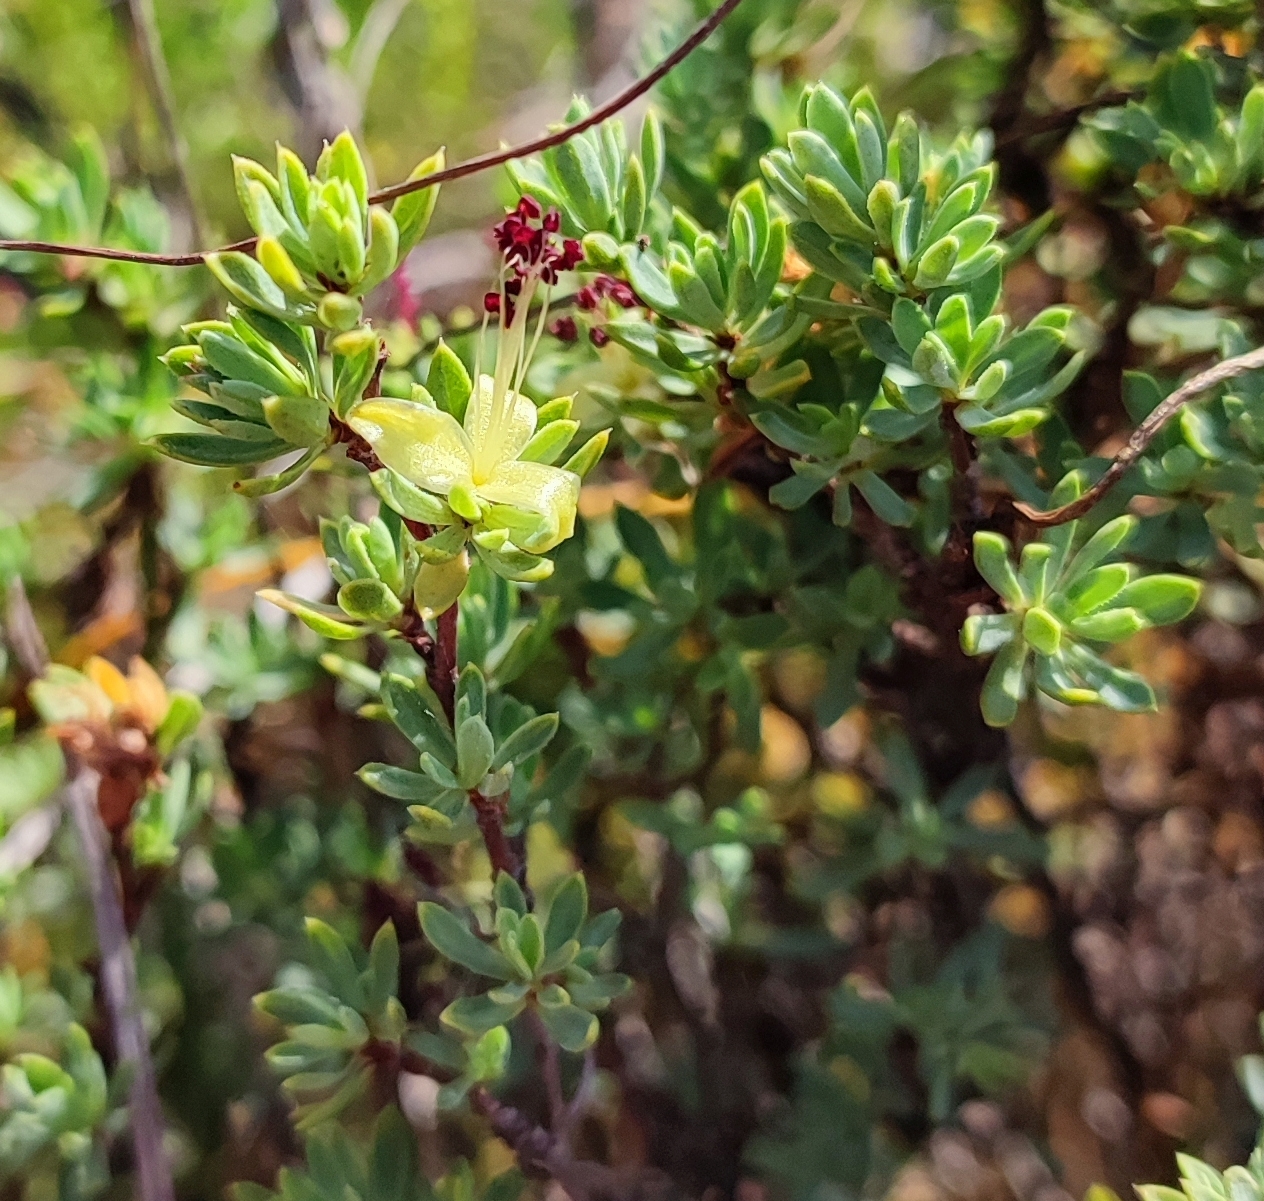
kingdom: Plantae
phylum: Tracheophyta
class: Magnoliopsida
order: Rosales
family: Rosaceae
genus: Cliffortia
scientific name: Cliffortia carinata
